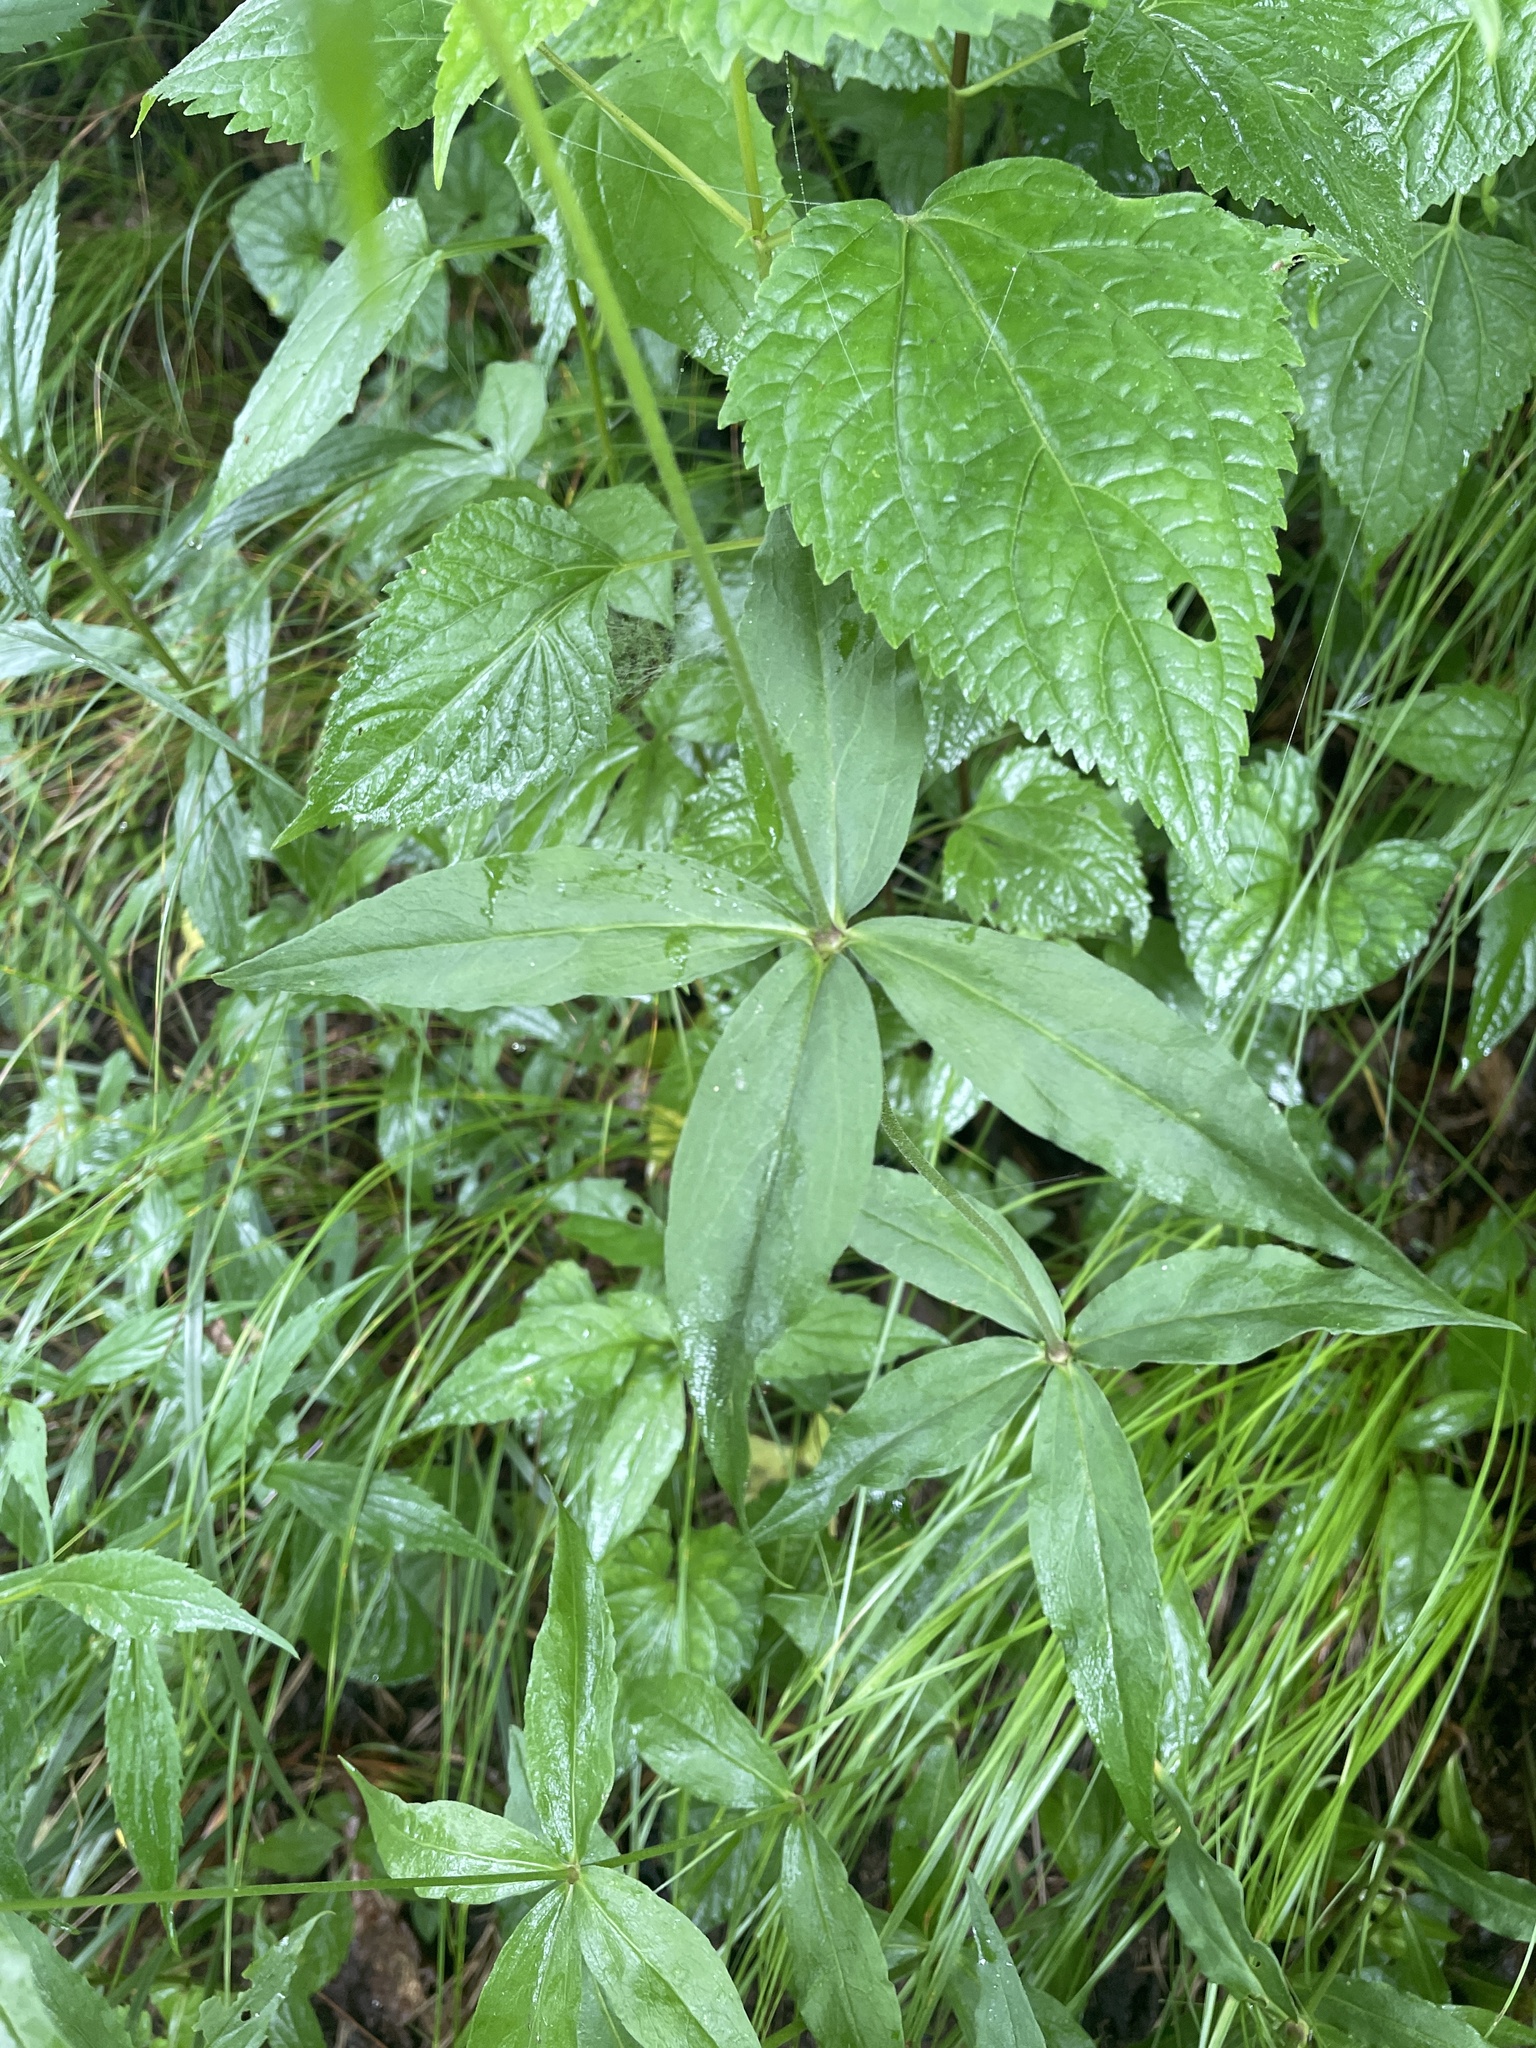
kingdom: Plantae
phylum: Tracheophyta
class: Magnoliopsida
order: Caryophyllales
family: Caryophyllaceae
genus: Silene
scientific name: Silene stellata
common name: Starry campion
